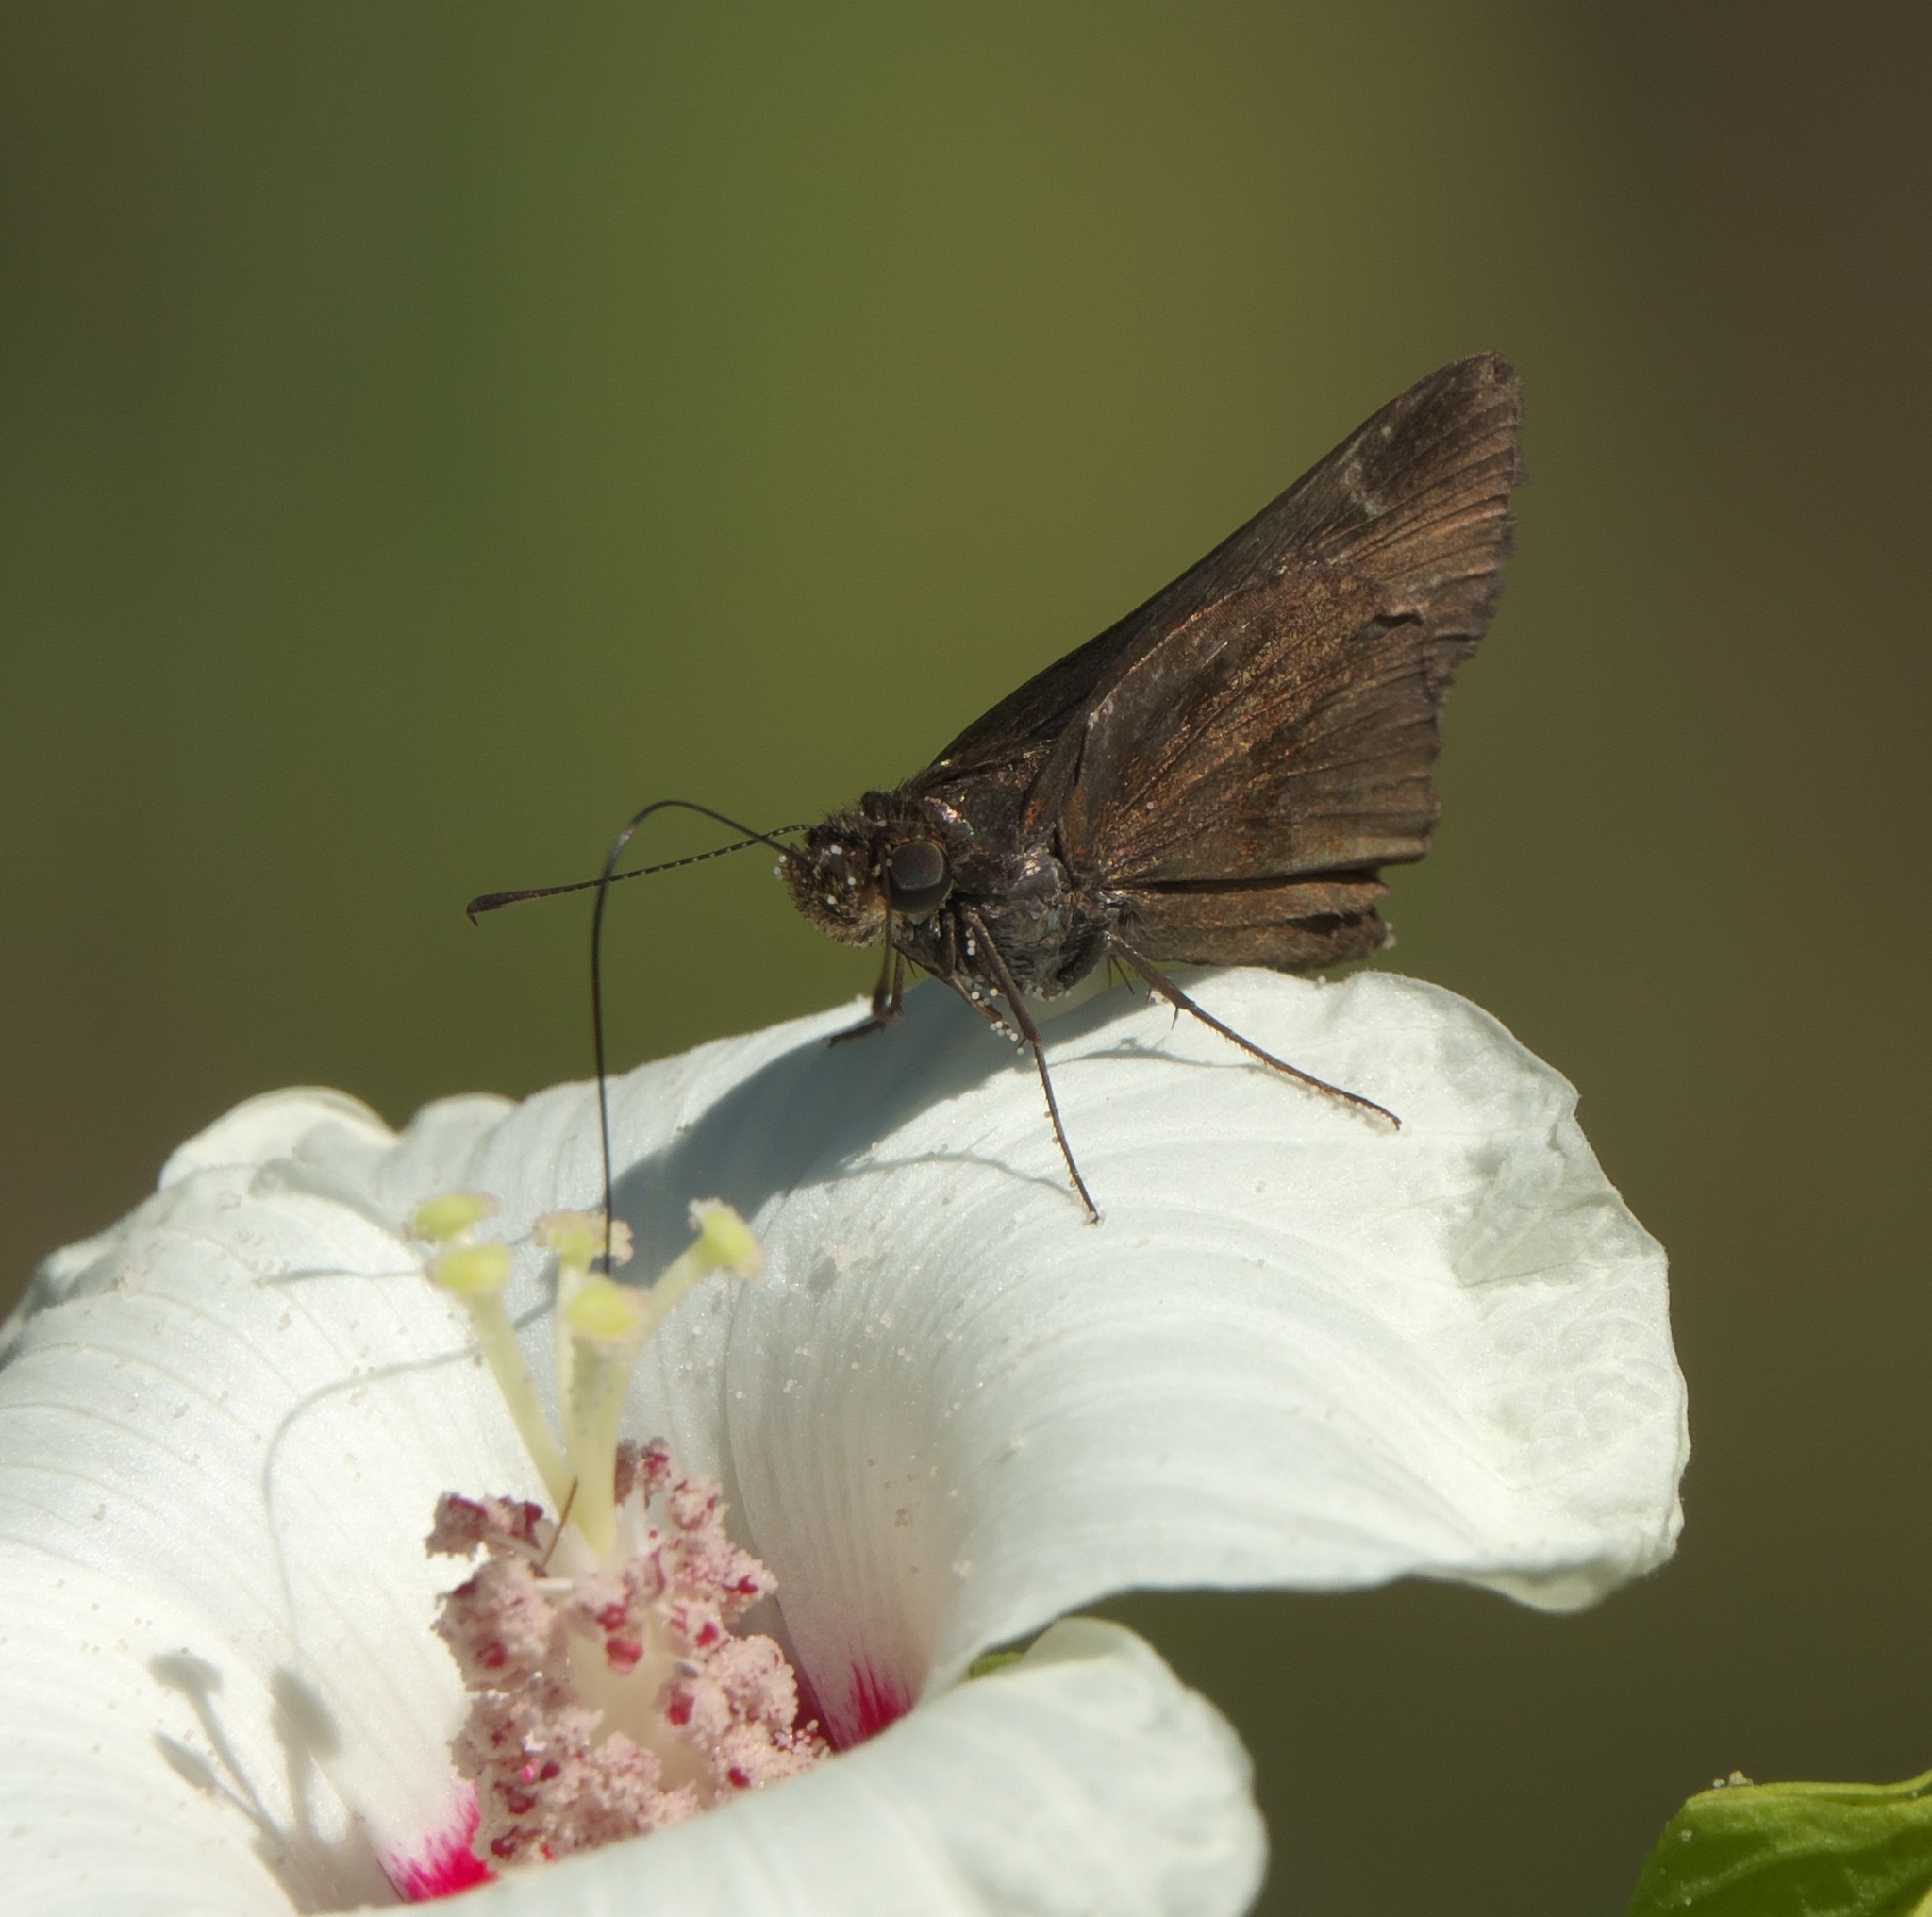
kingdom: Animalia
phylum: Arthropoda
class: Insecta
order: Lepidoptera
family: Hesperiidae
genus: Lerema
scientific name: Lerema accius
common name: Clouded skipper
